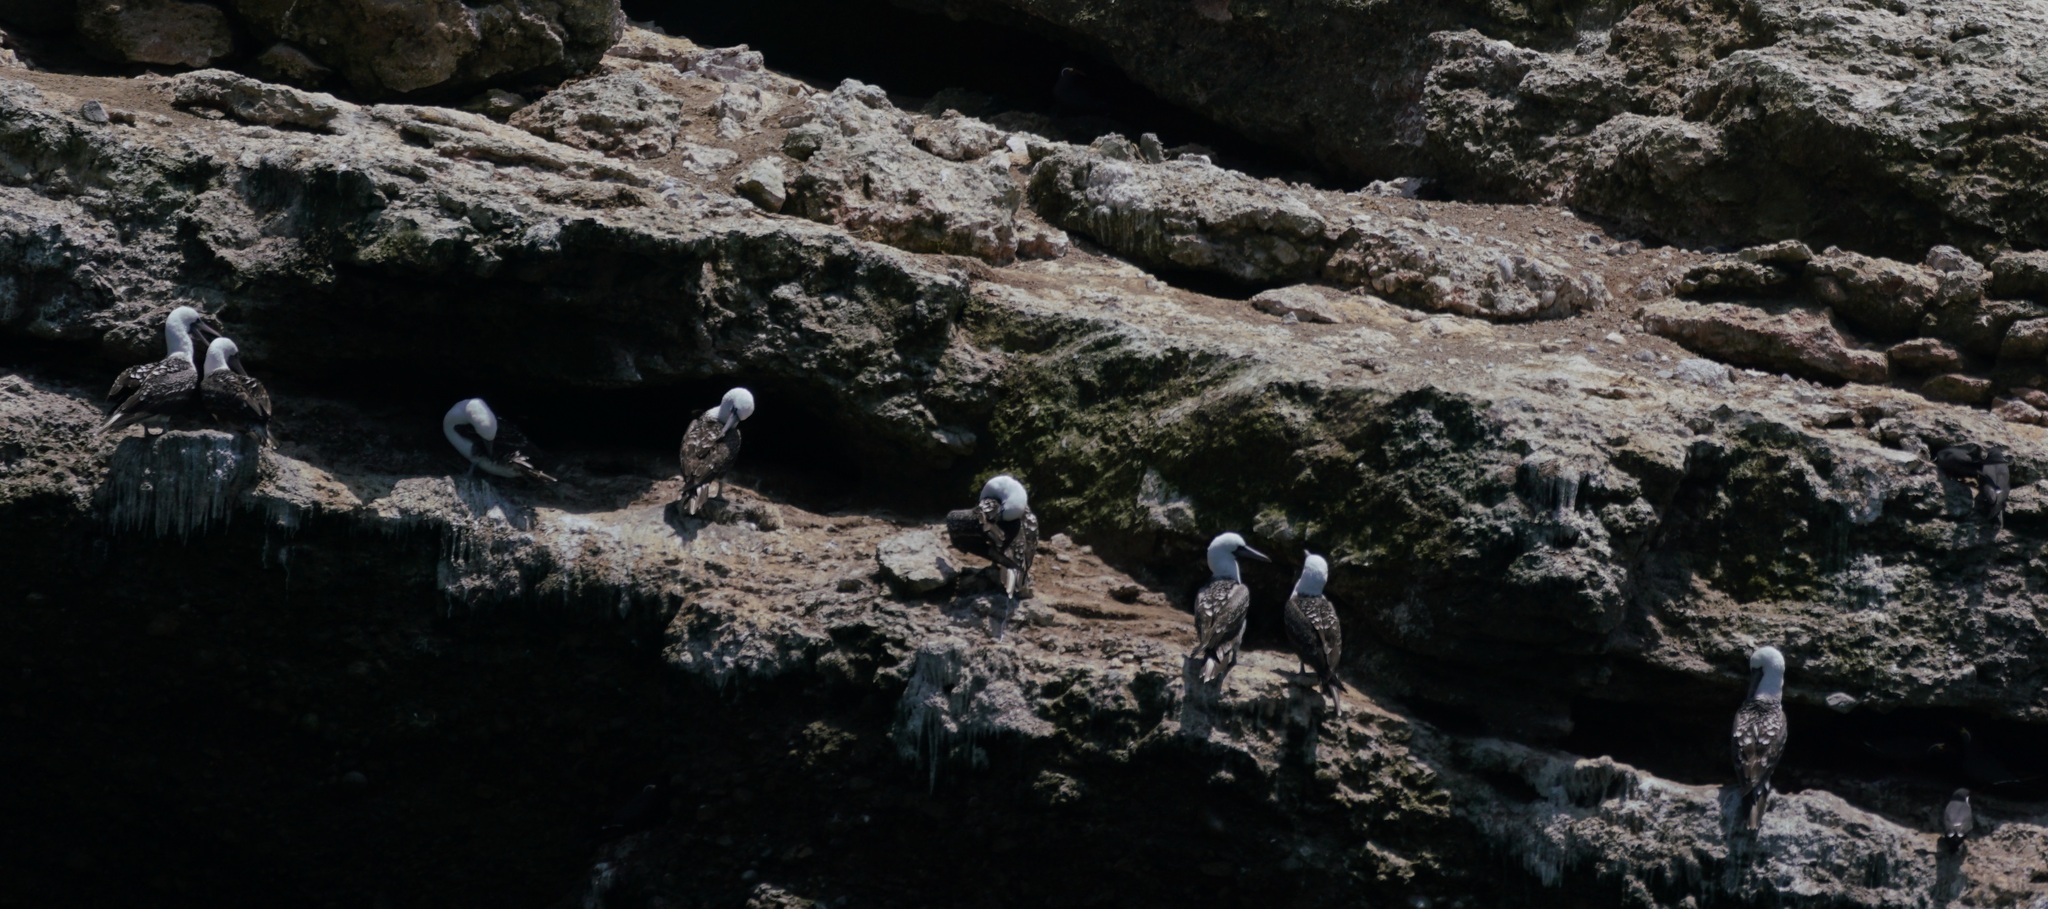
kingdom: Animalia
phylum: Chordata
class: Aves
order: Suliformes
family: Sulidae
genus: Sula
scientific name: Sula variegata
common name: Peruvian booby
